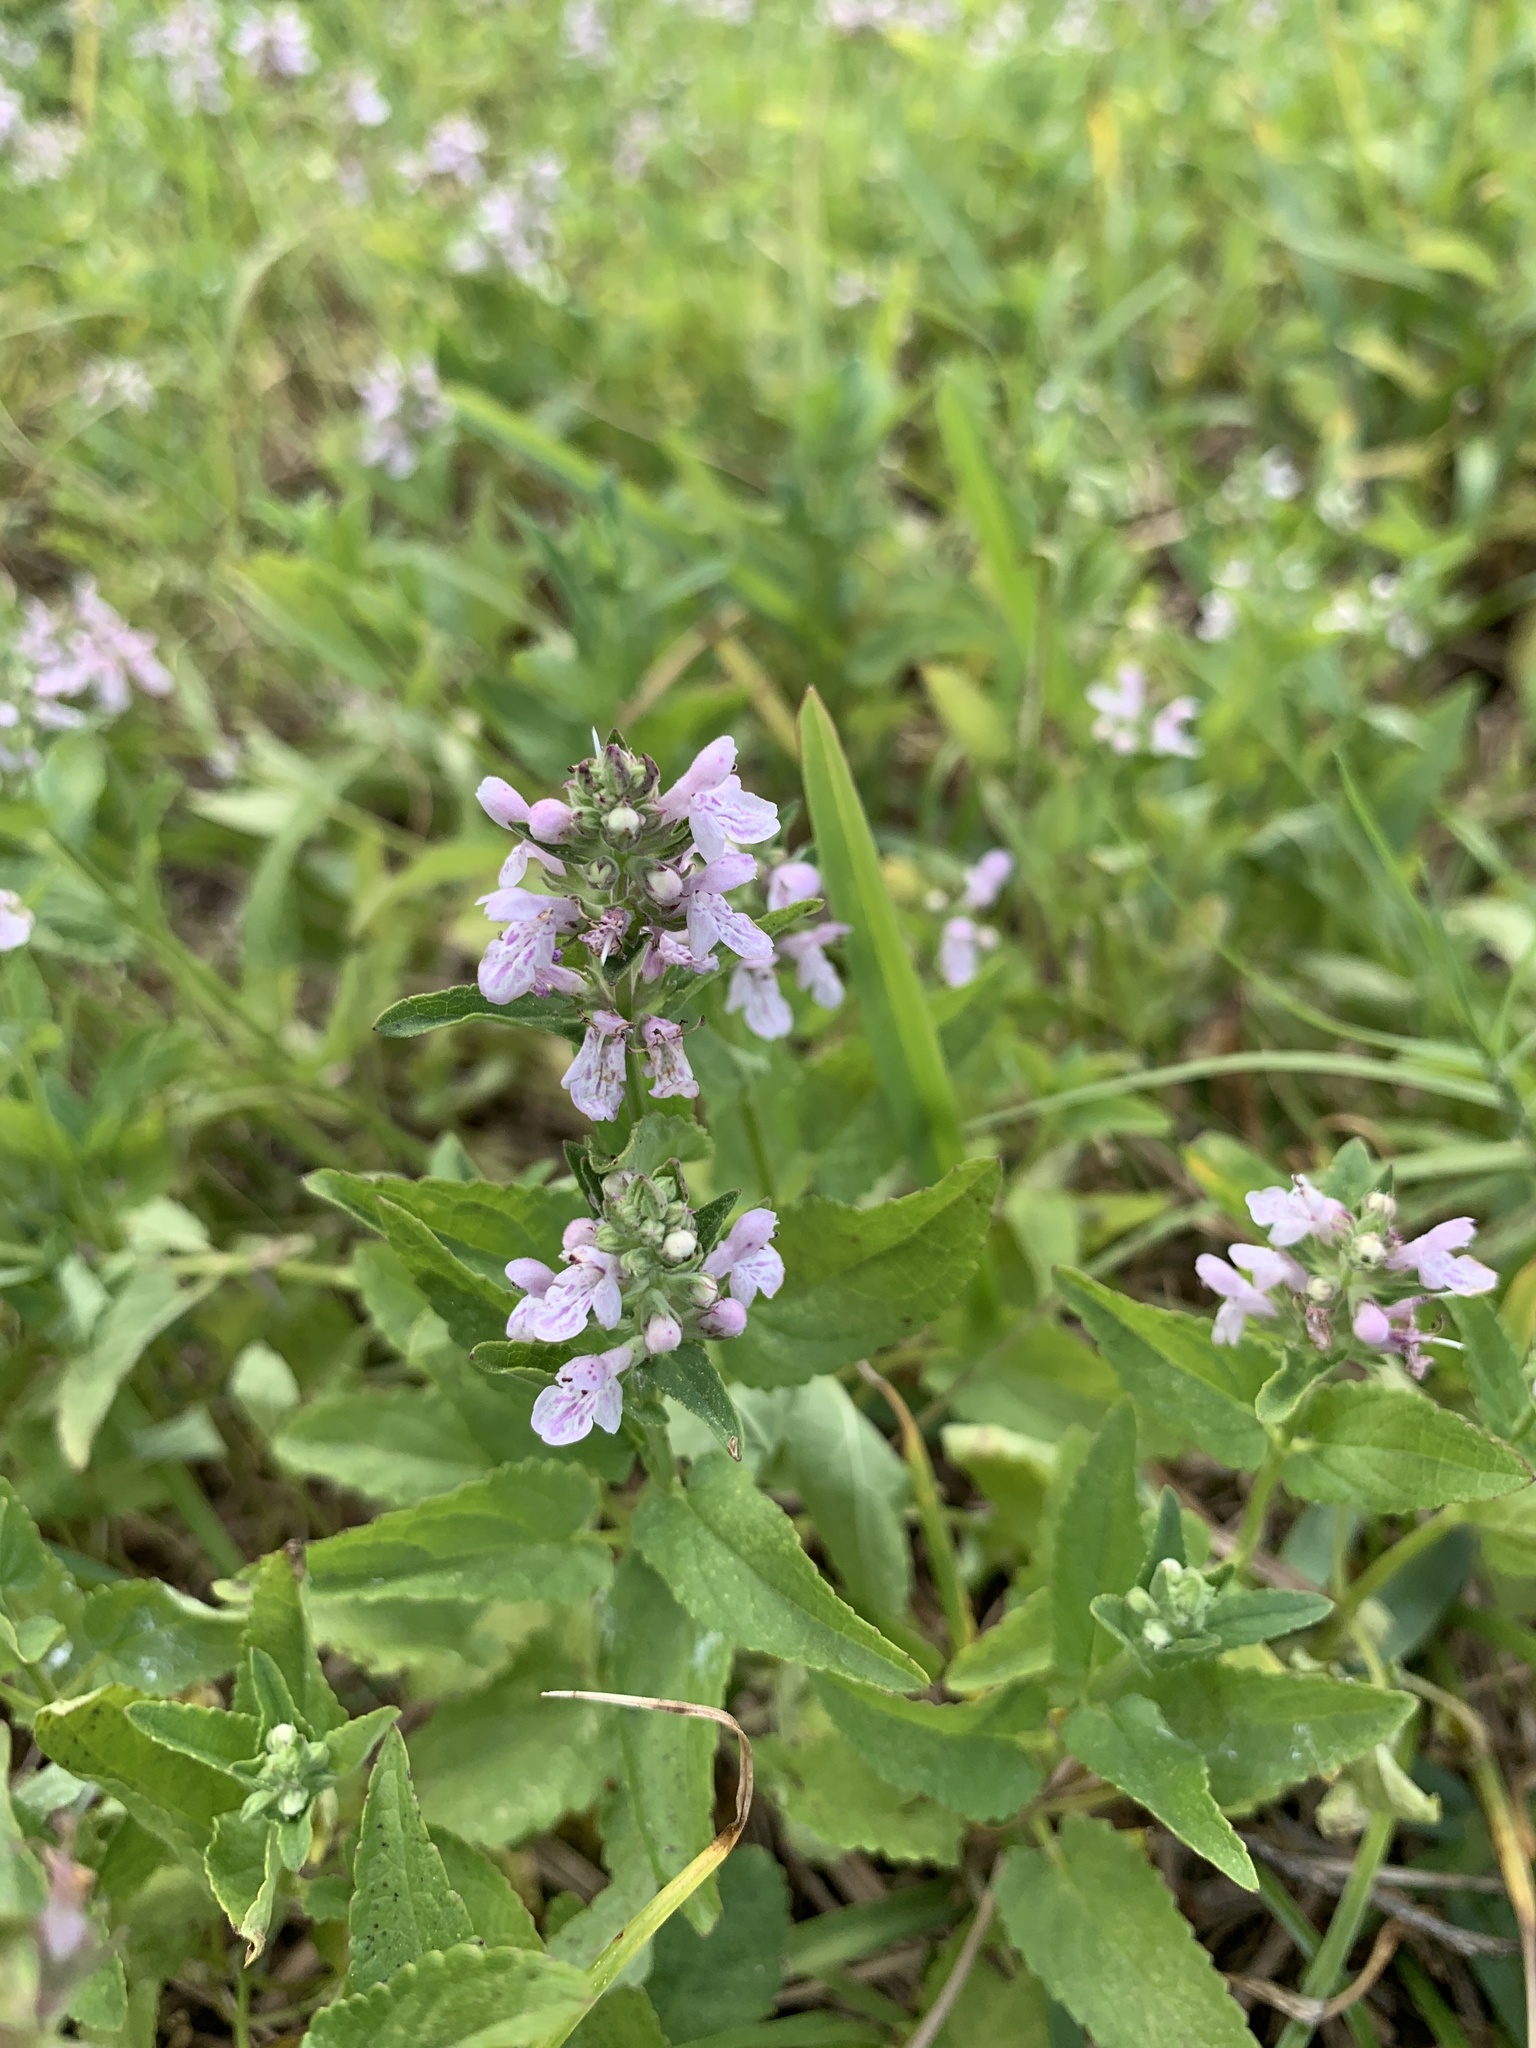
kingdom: Plantae
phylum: Tracheophyta
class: Magnoliopsida
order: Lamiales
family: Lamiaceae
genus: Stachys
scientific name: Stachys floridana
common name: Florida betony
